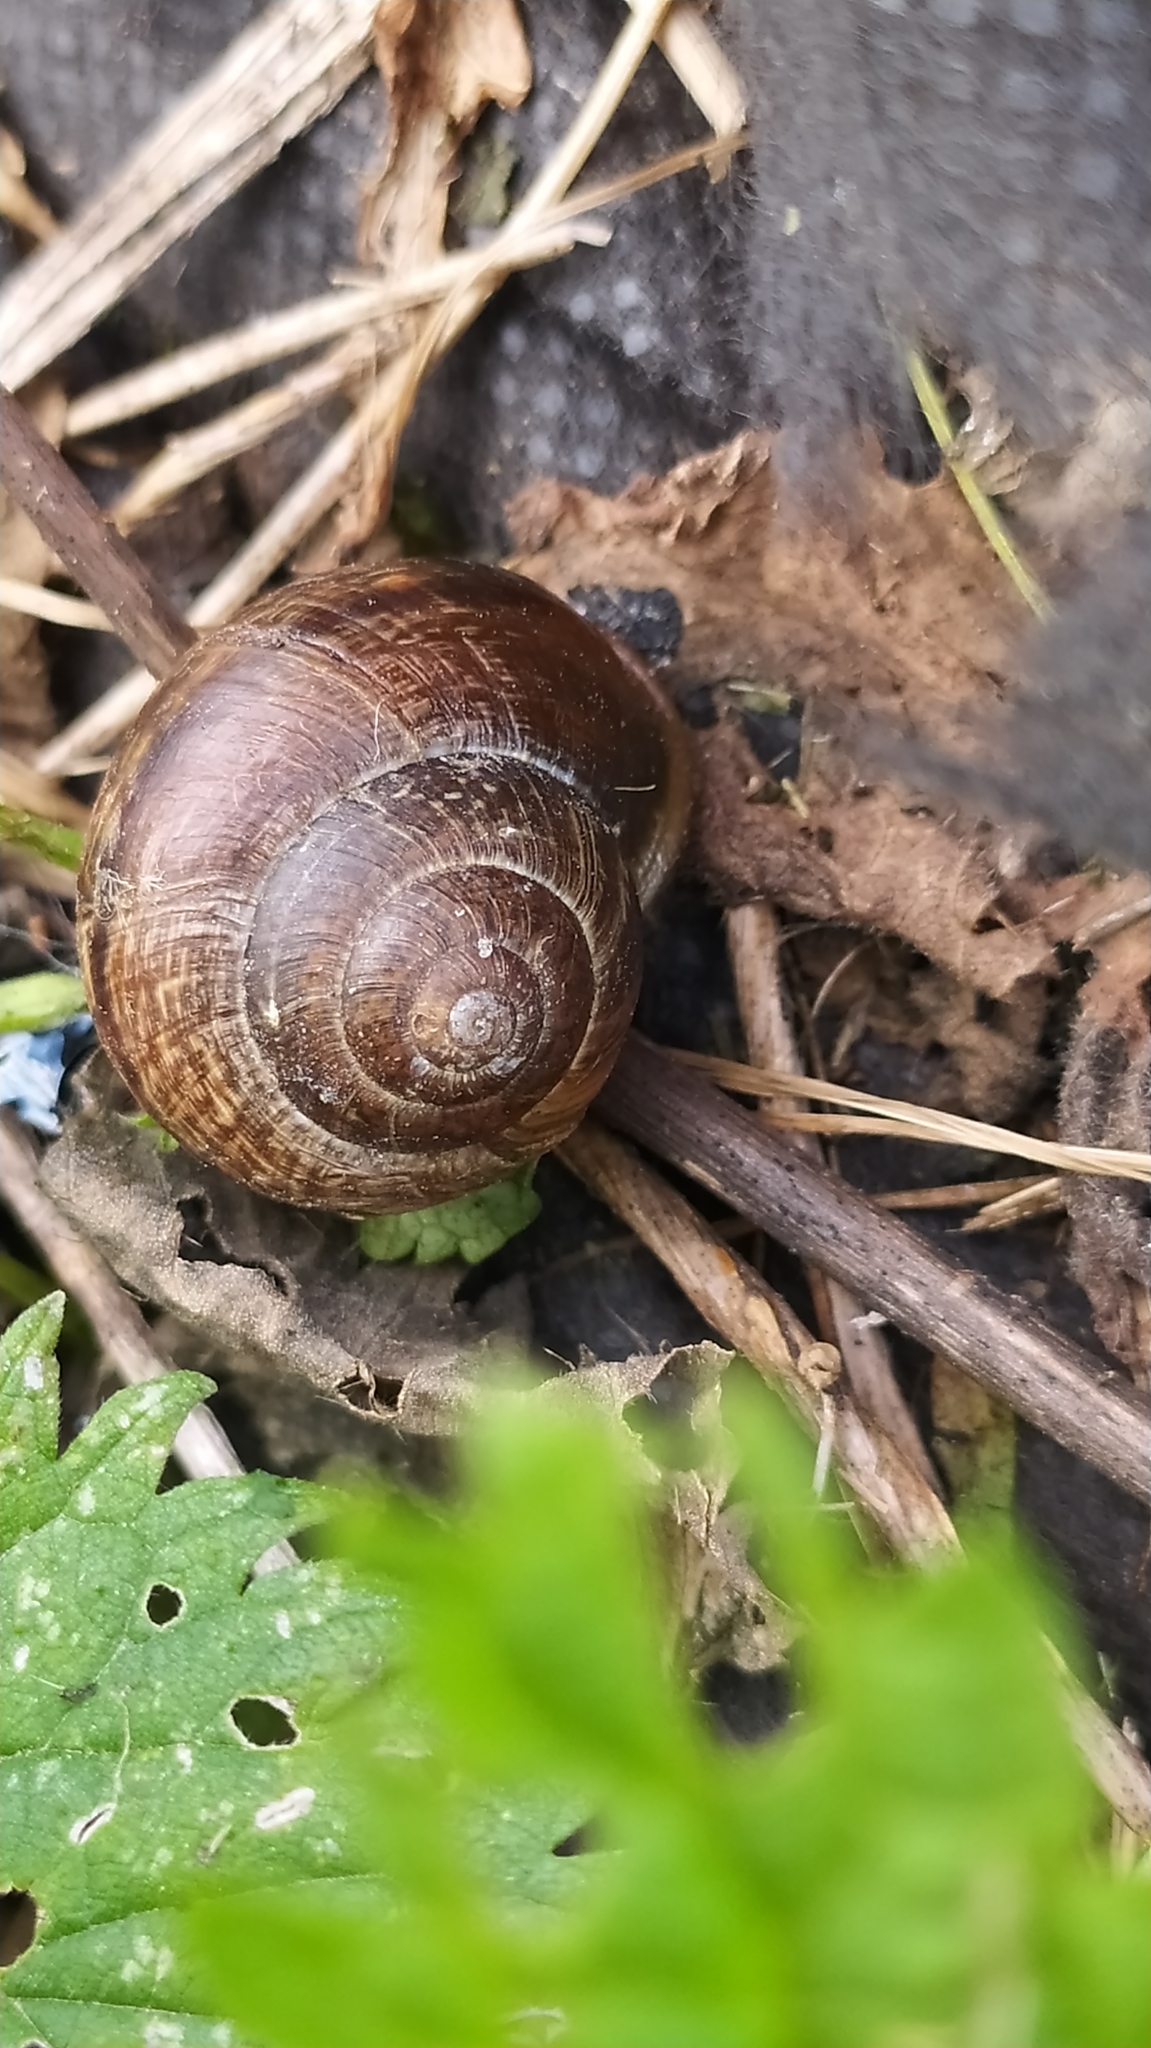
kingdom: Animalia
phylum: Mollusca
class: Gastropoda
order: Stylommatophora
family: Helicidae
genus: Arianta
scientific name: Arianta arbustorum
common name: Copse snail
